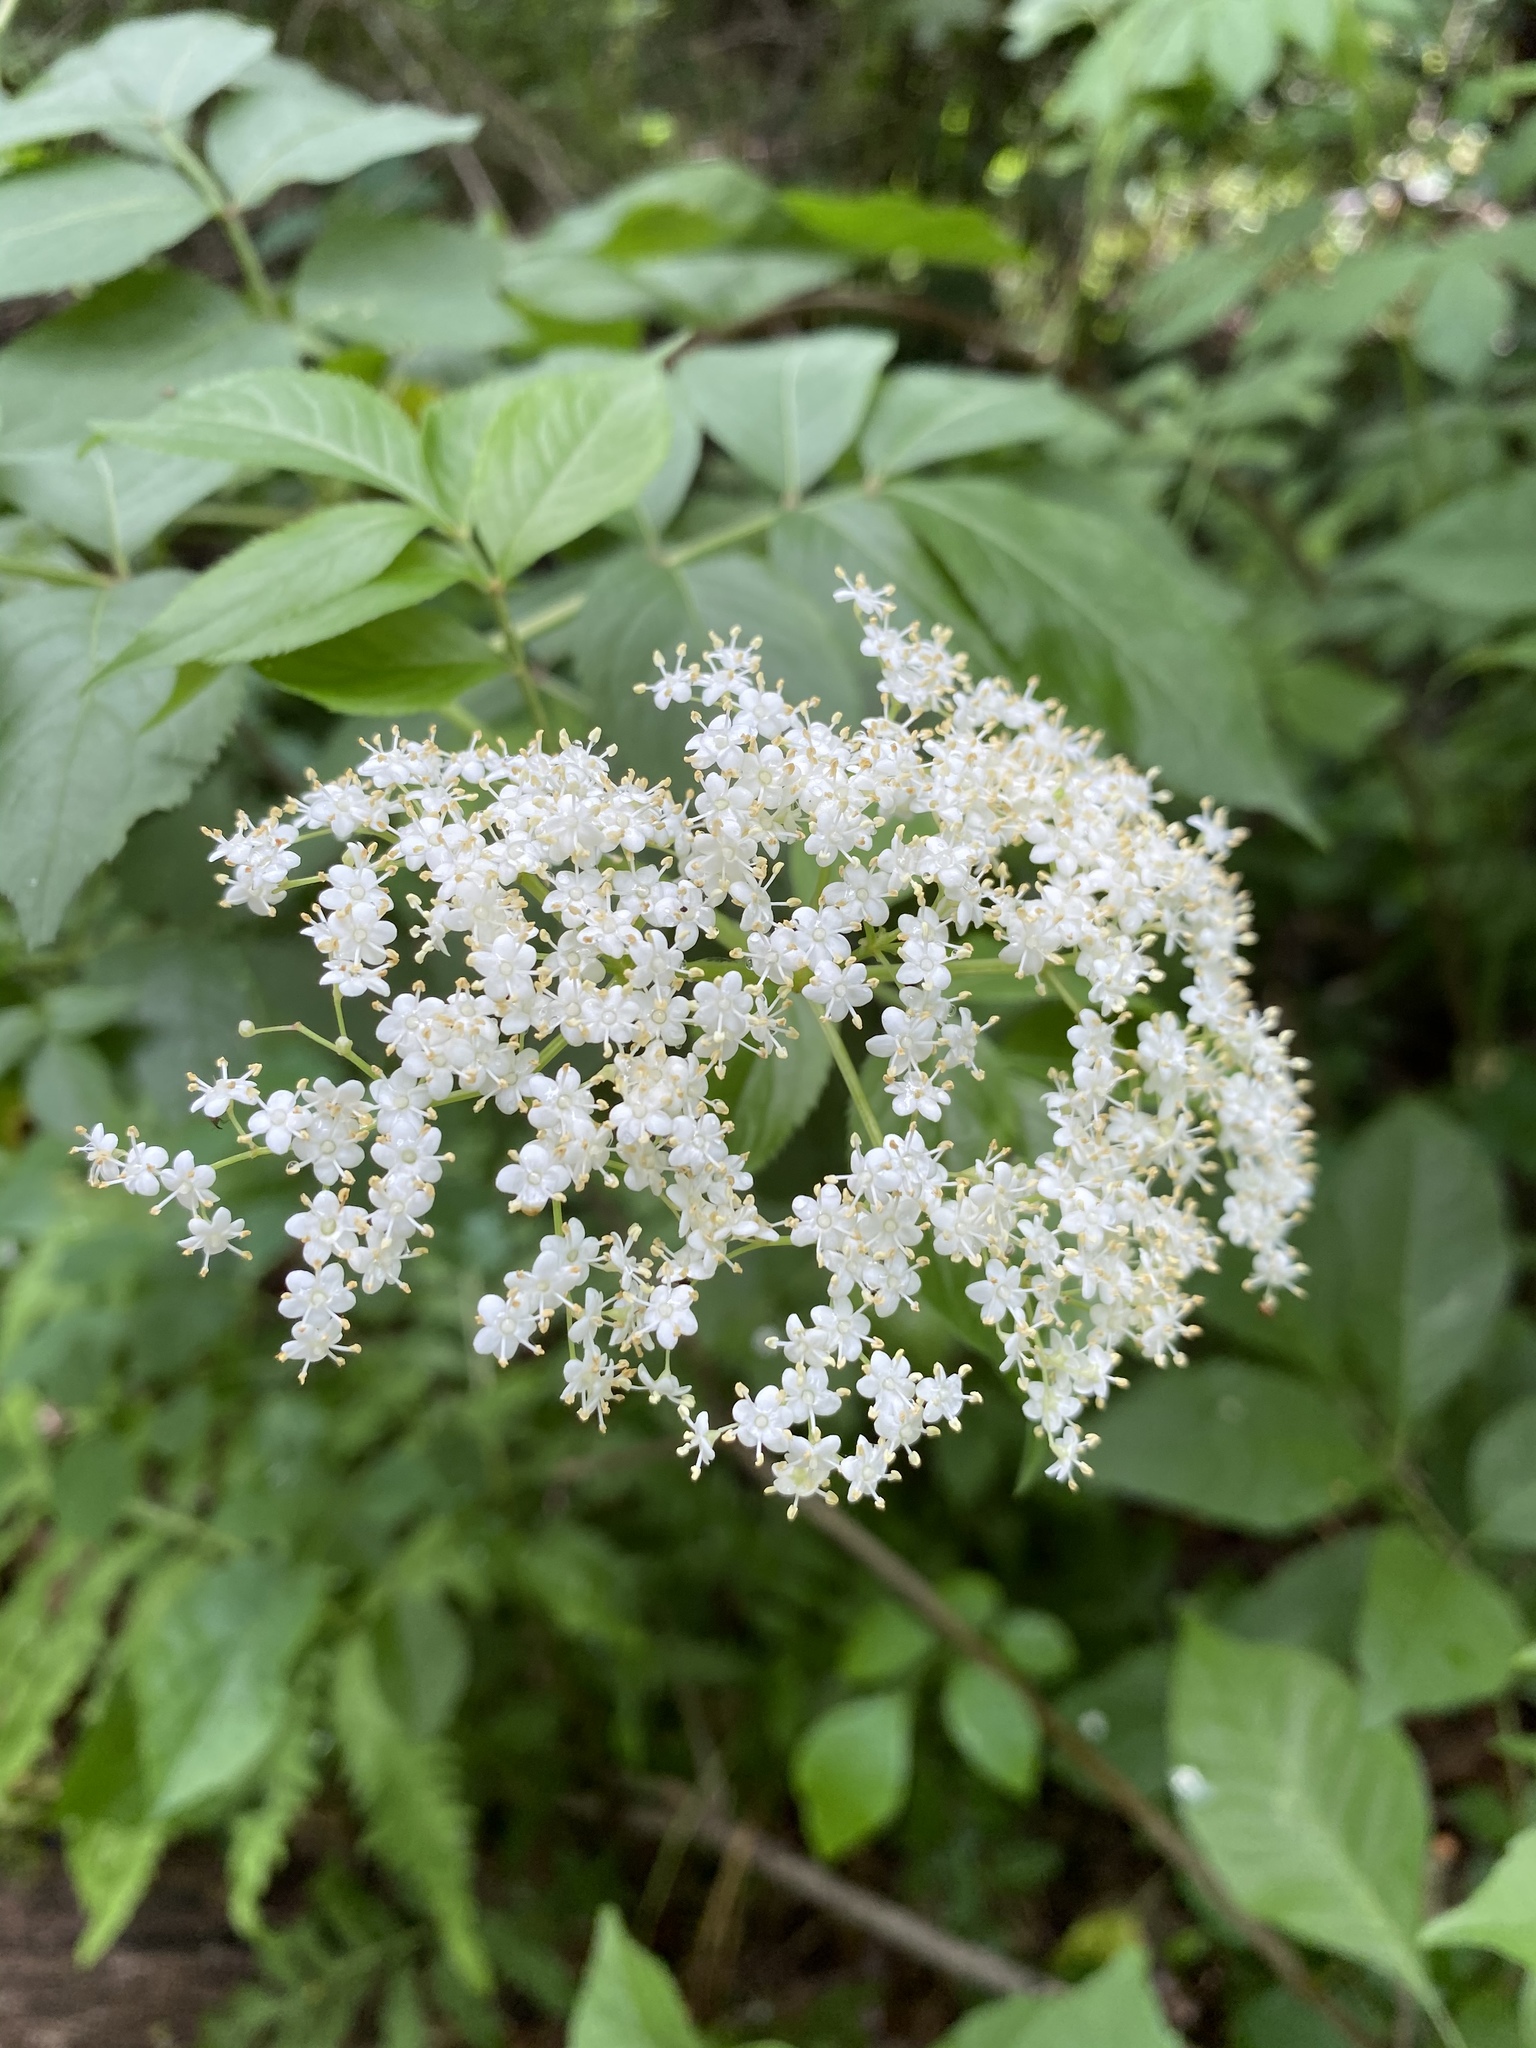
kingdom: Plantae
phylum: Tracheophyta
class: Magnoliopsida
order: Dipsacales
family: Viburnaceae
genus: Sambucus
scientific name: Sambucus canadensis
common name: American elder
